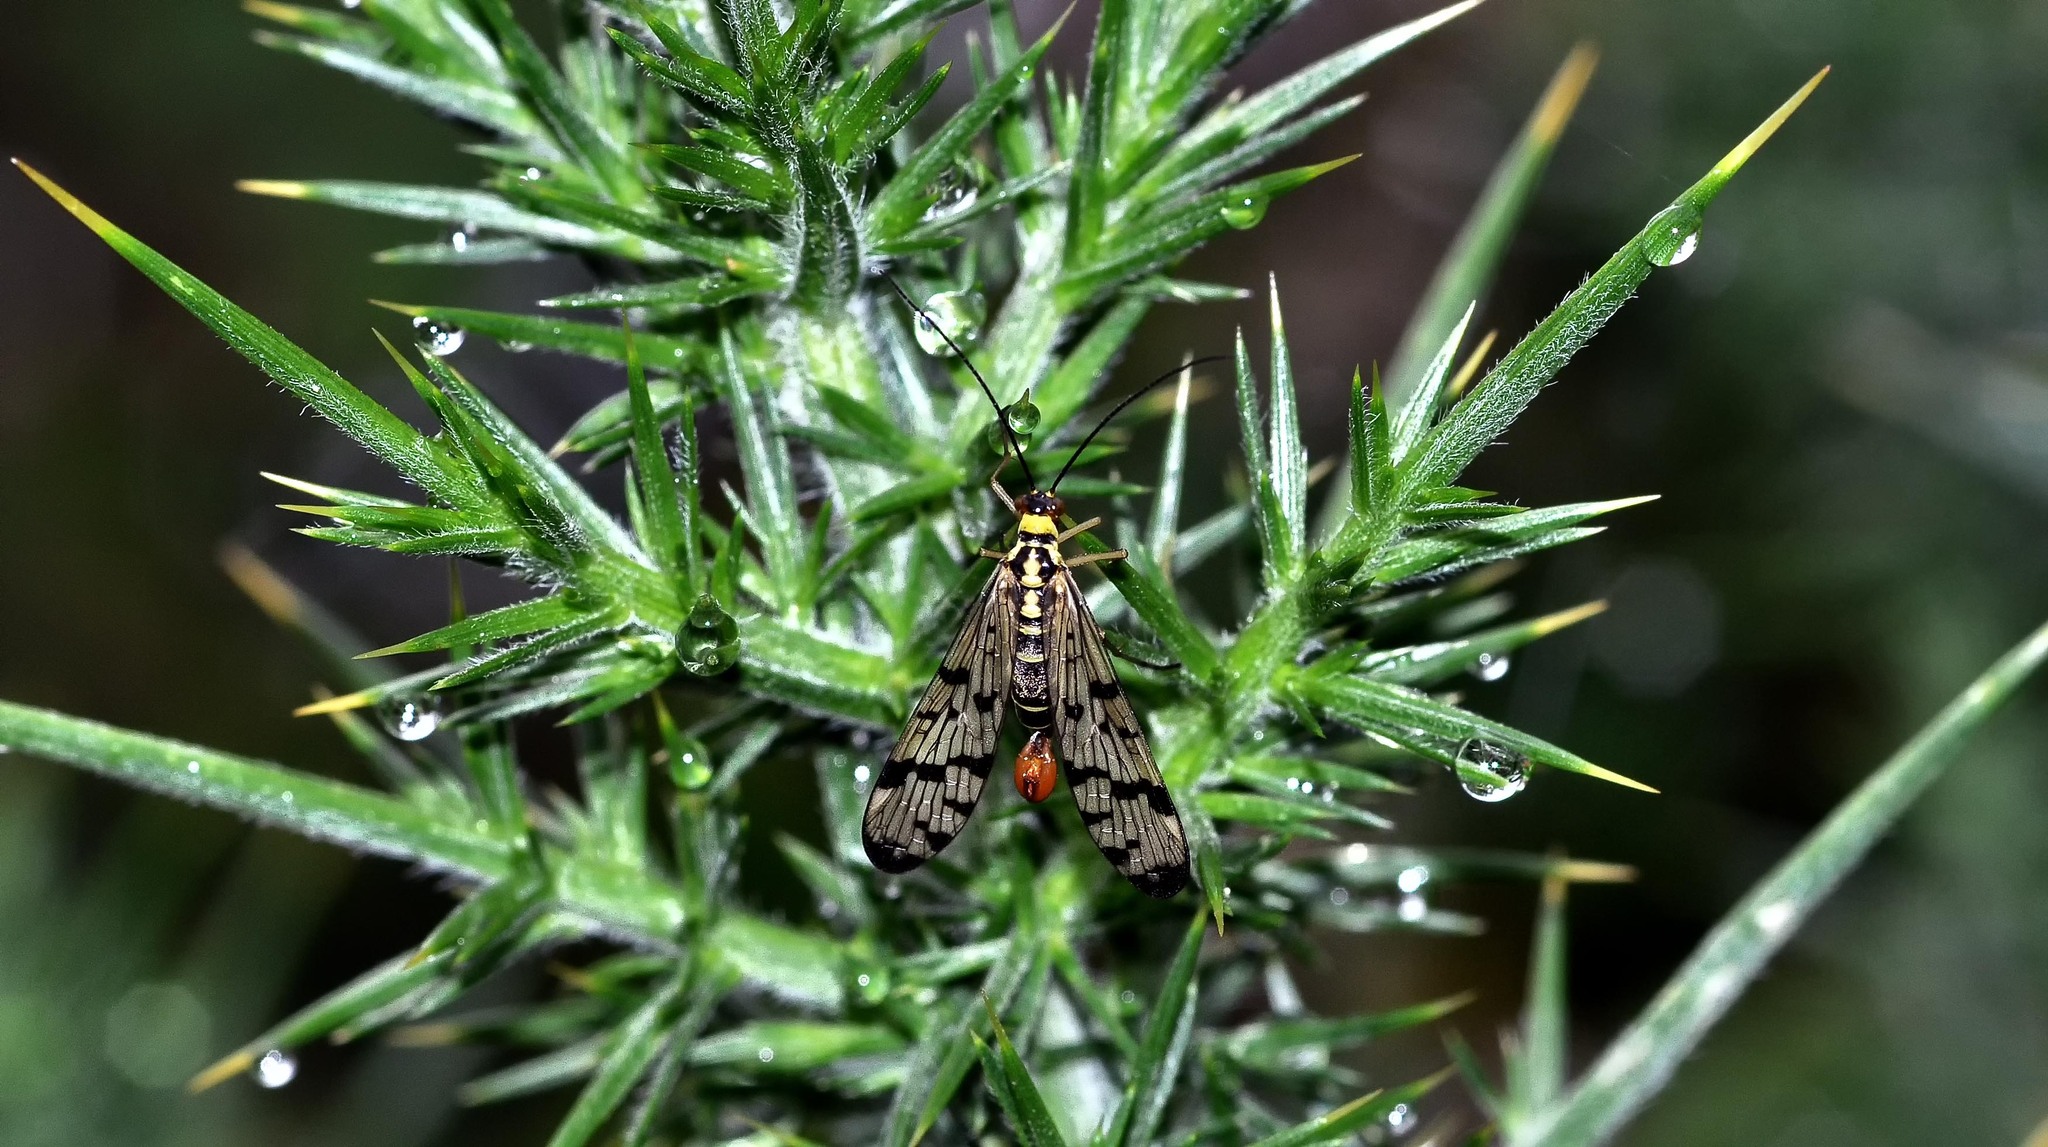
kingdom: Animalia
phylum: Arthropoda
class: Insecta
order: Mecoptera
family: Panorpidae
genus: Panorpa
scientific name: Panorpa germanica
